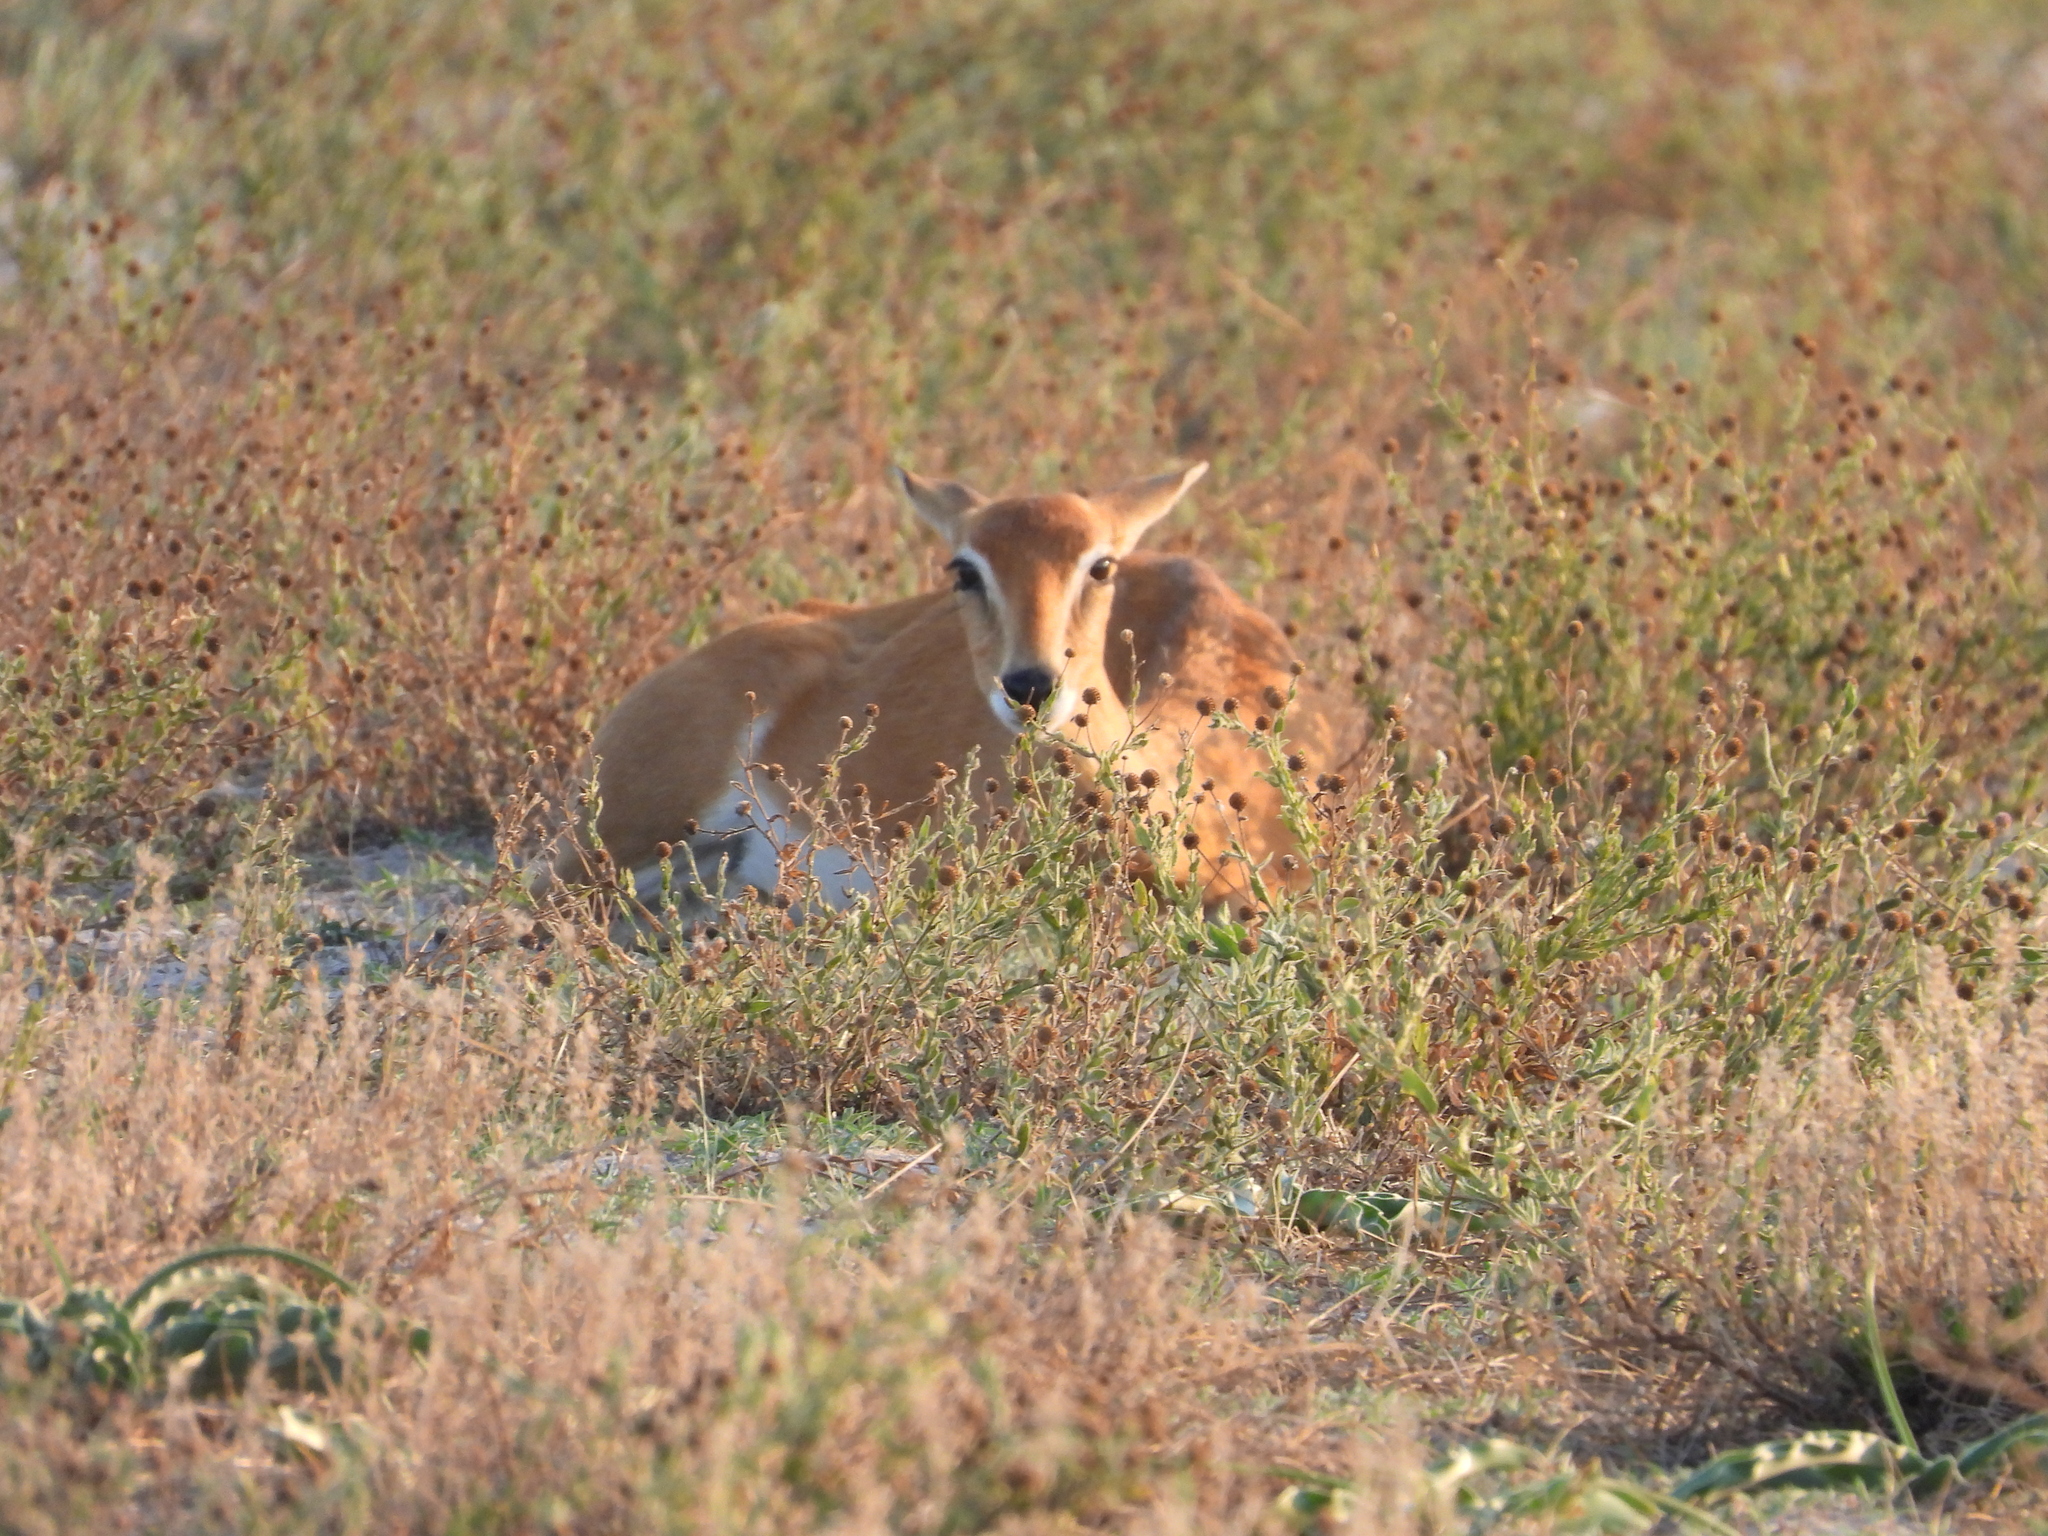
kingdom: Animalia
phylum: Chordata
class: Mammalia
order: Artiodactyla
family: Bovidae
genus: Ourebia
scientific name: Ourebia ourebi
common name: Oribi
